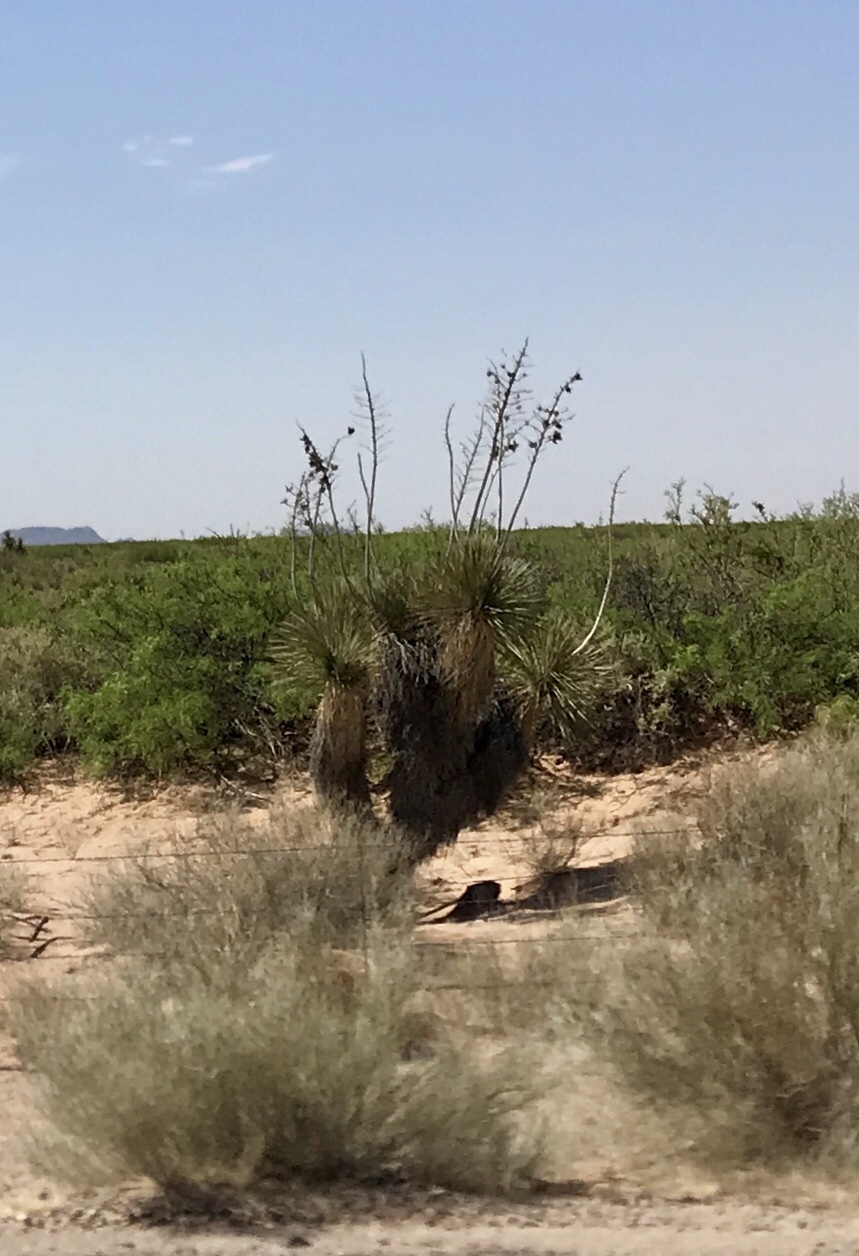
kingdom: Plantae
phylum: Tracheophyta
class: Liliopsida
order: Asparagales
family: Asparagaceae
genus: Yucca
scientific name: Yucca elata
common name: Palmella
